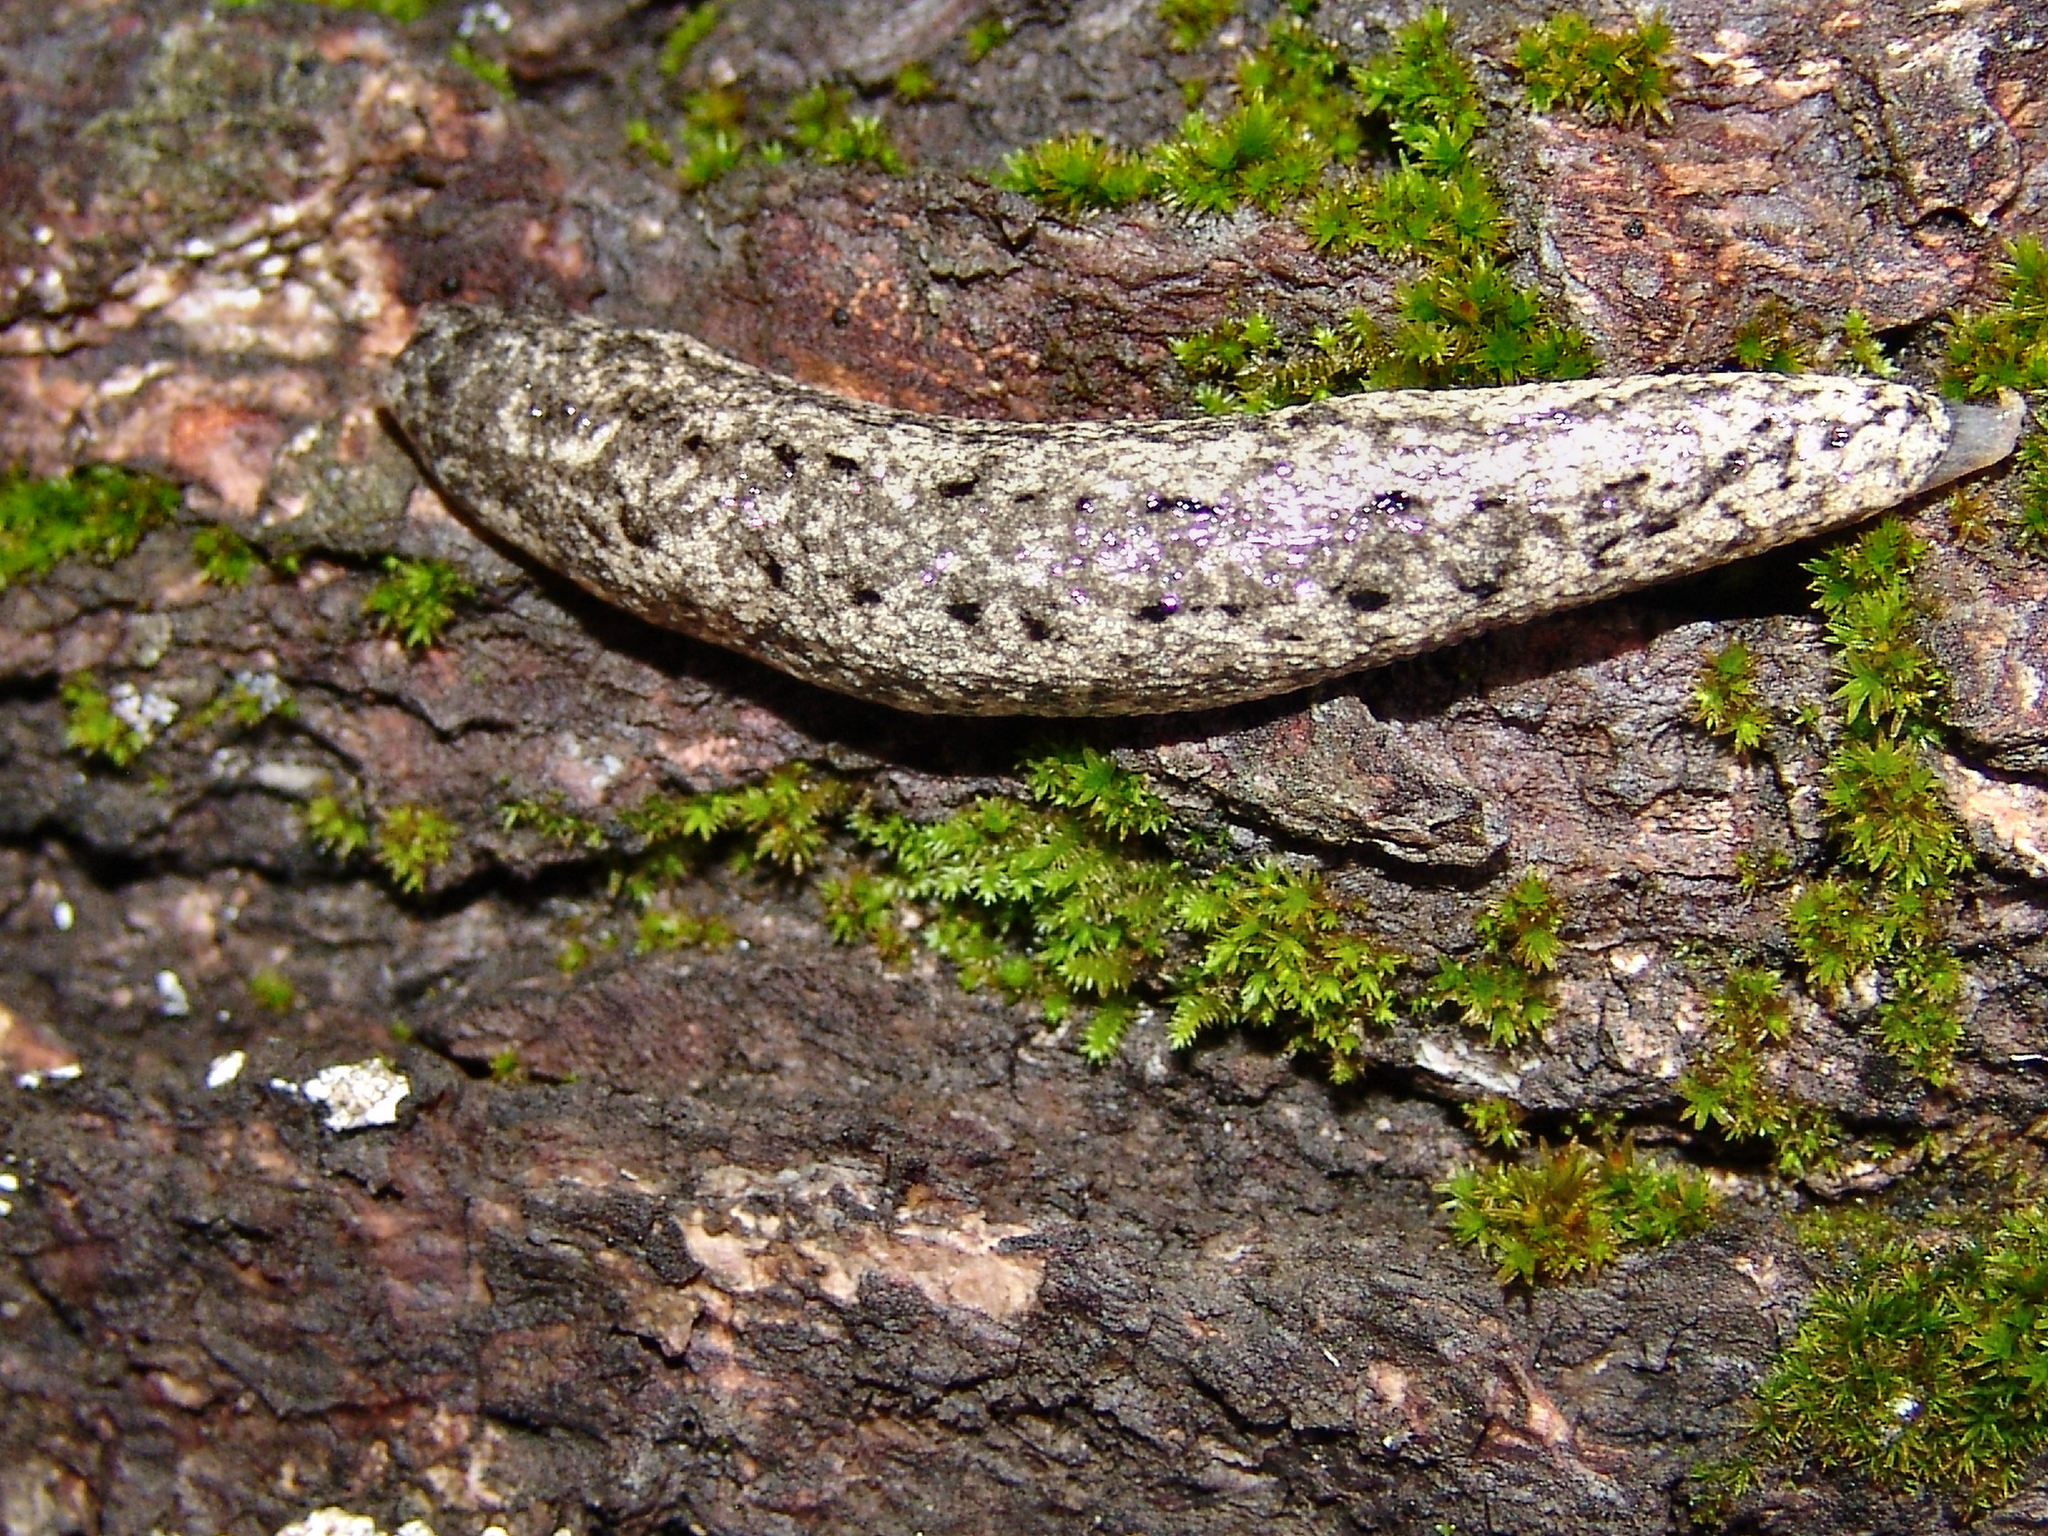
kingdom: Animalia
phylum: Mollusca
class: Gastropoda
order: Stylommatophora
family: Philomycidae
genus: Philomycus
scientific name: Philomycus carolinianus
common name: Carolina mantleslug
